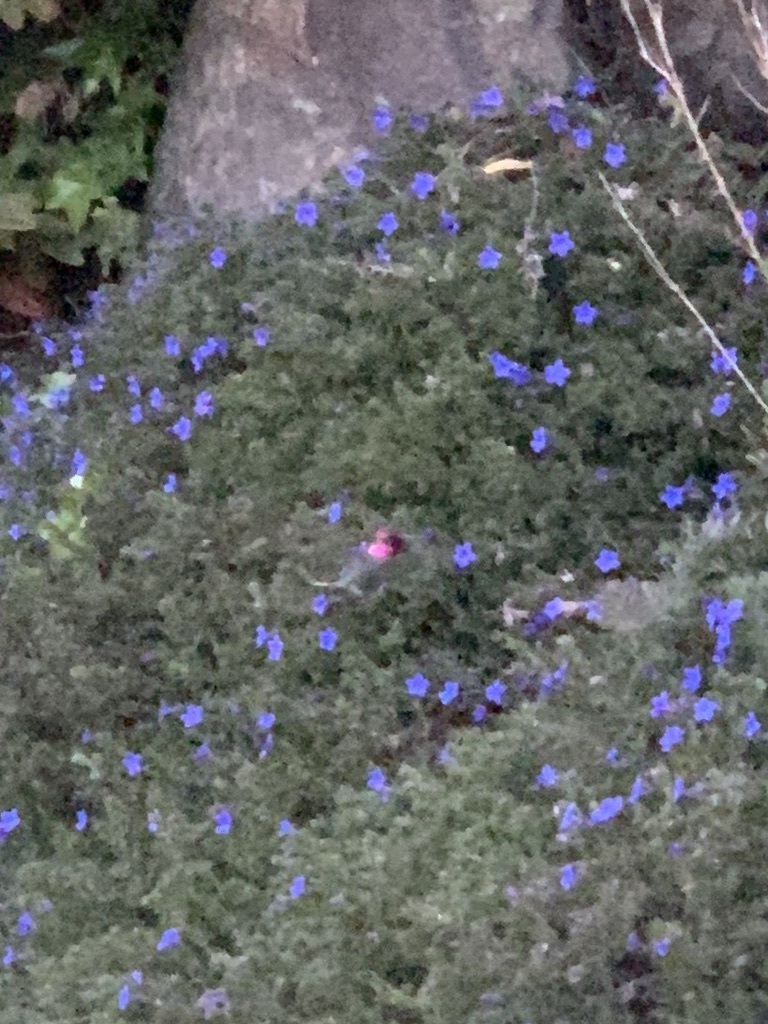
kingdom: Animalia
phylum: Chordata
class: Aves
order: Apodiformes
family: Trochilidae
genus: Calypte
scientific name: Calypte anna
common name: Anna's hummingbird
